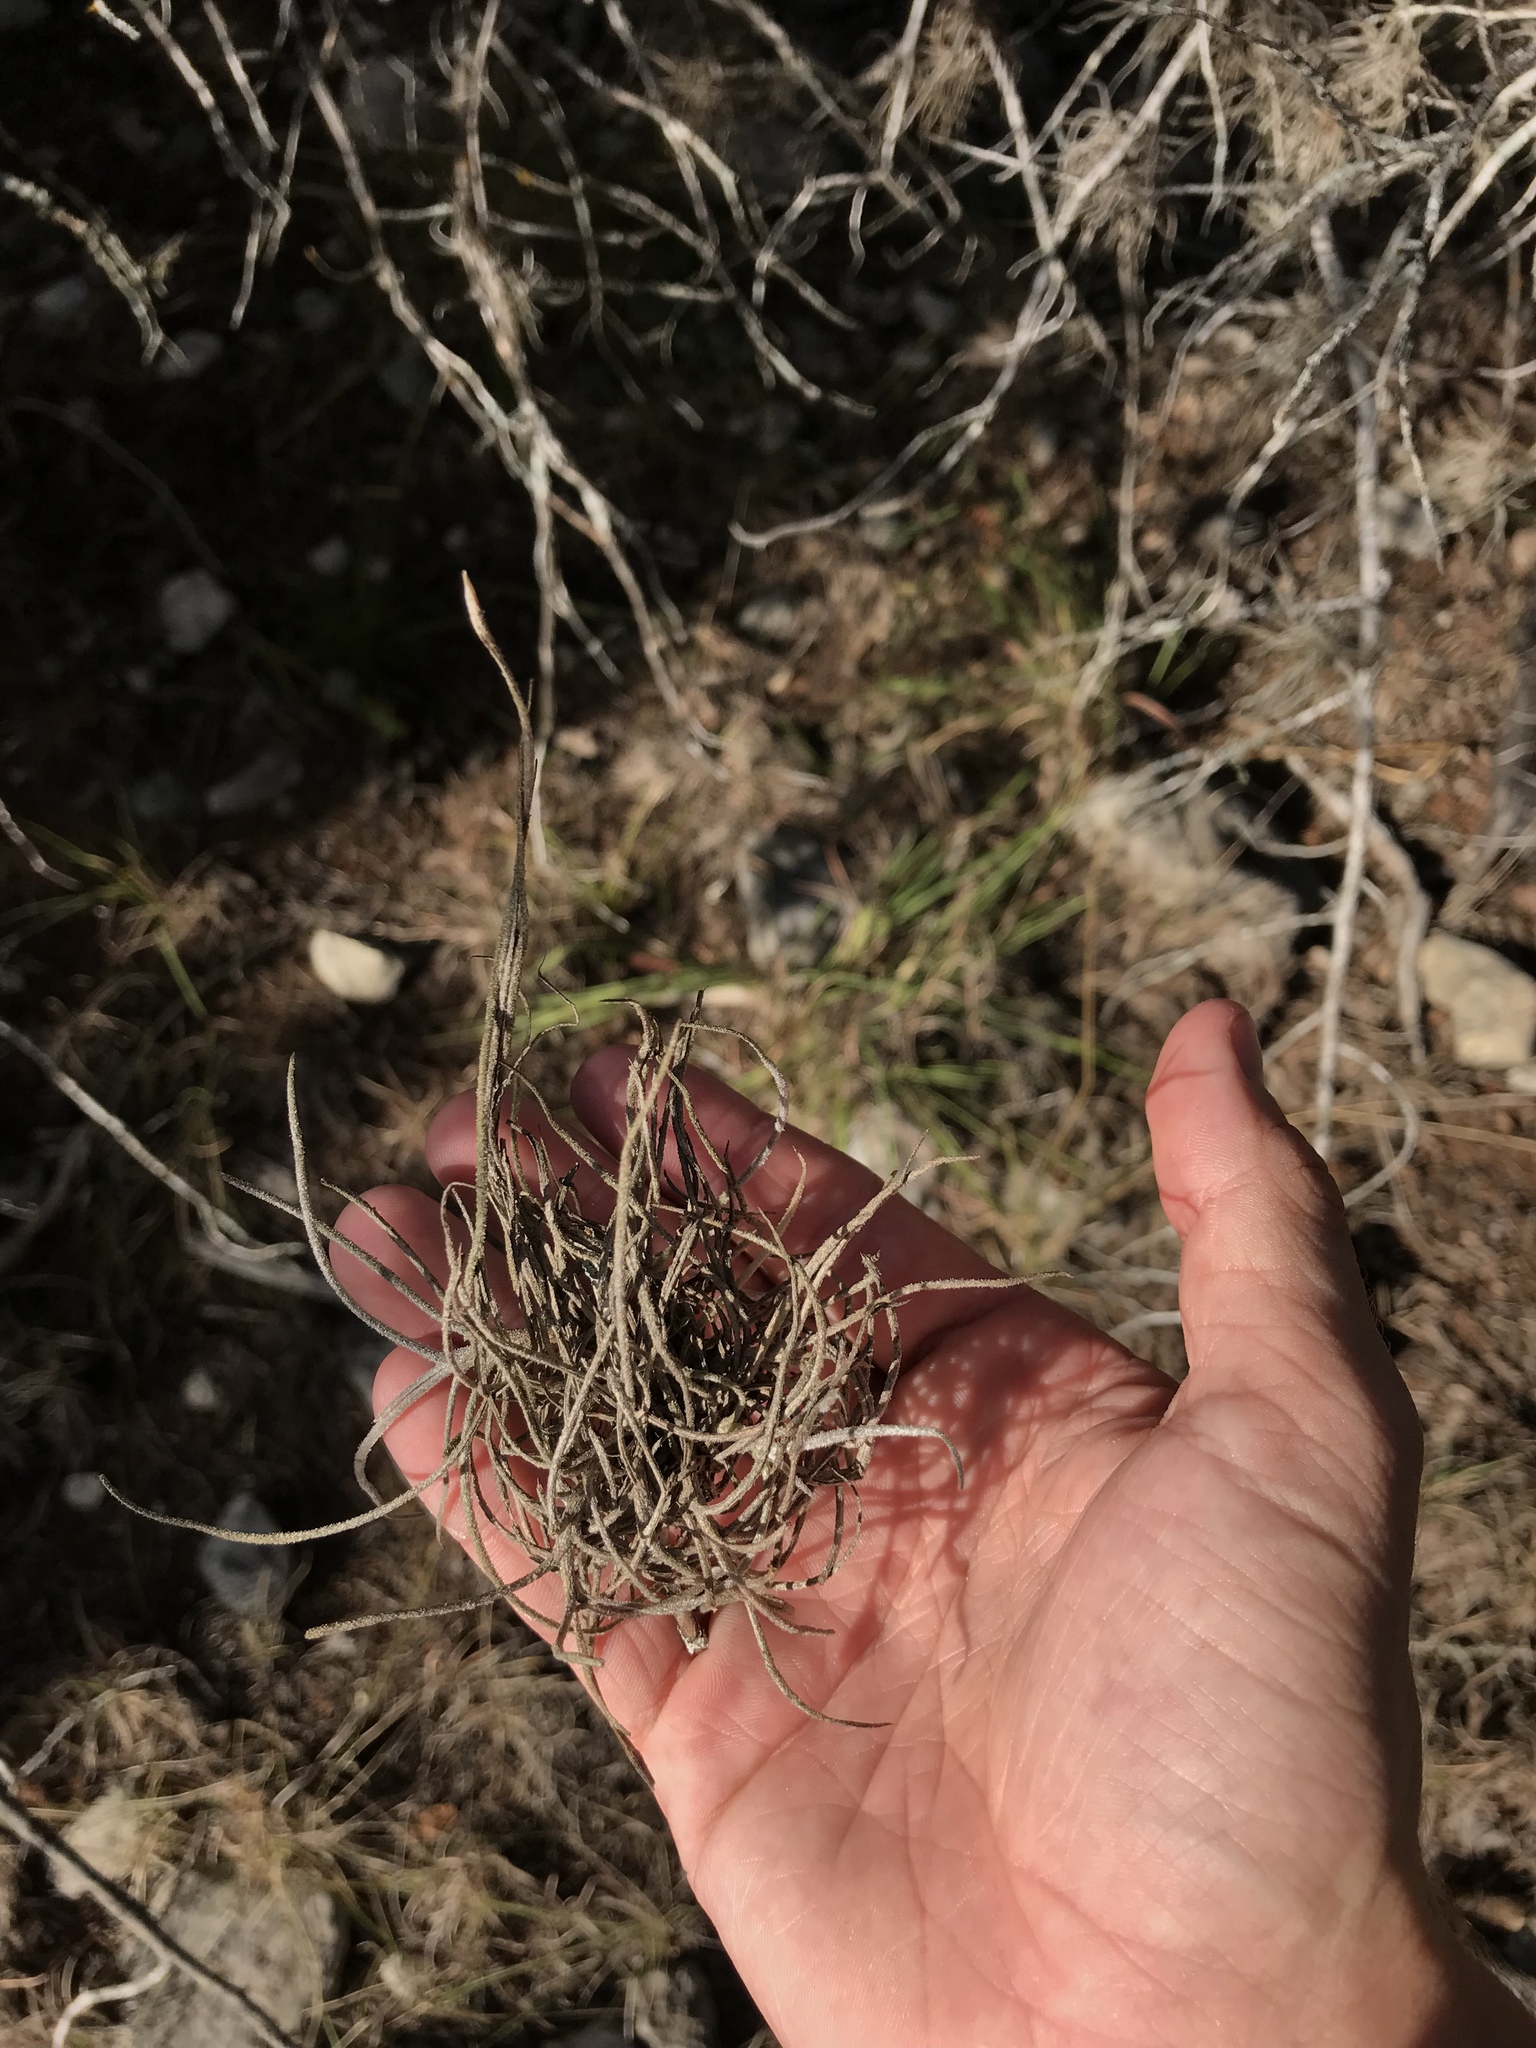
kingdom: Plantae
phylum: Tracheophyta
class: Liliopsida
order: Poales
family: Bromeliaceae
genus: Tillandsia
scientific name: Tillandsia recurvata
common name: Small ballmoss
